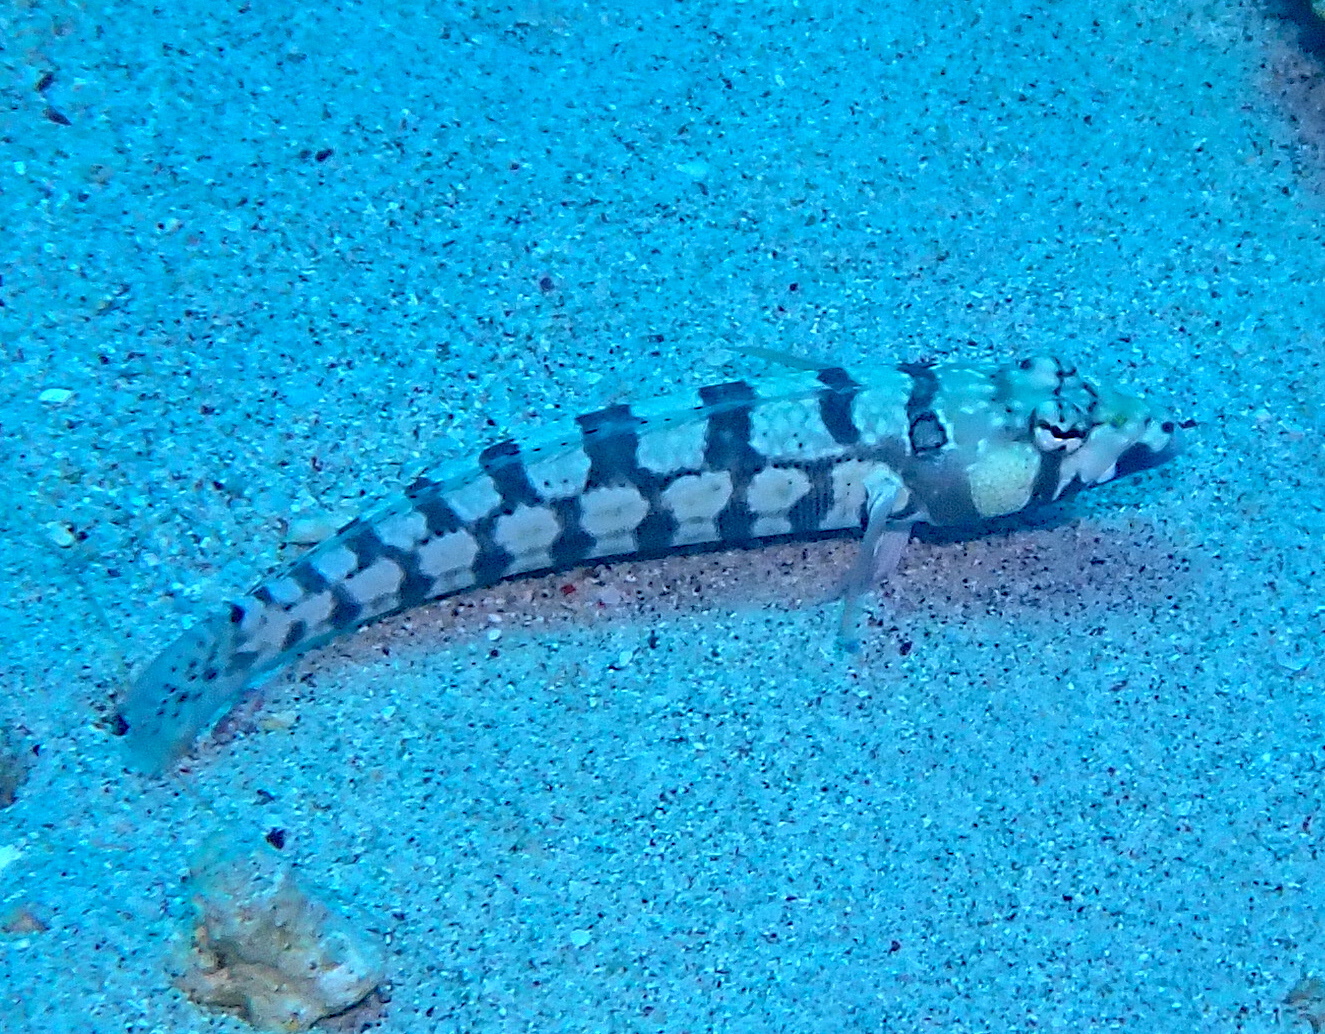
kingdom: Animalia
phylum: Chordata
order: Perciformes
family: Pinguipedidae
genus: Parapercis
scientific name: Parapercis tetracantha
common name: Black-banded grubfish
